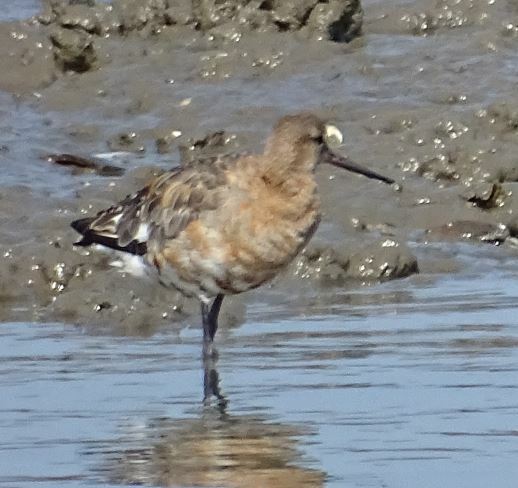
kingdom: Animalia
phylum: Chordata
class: Aves
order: Charadriiformes
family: Scolopacidae
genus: Limosa
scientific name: Limosa limosa
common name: Black-tailed godwit
